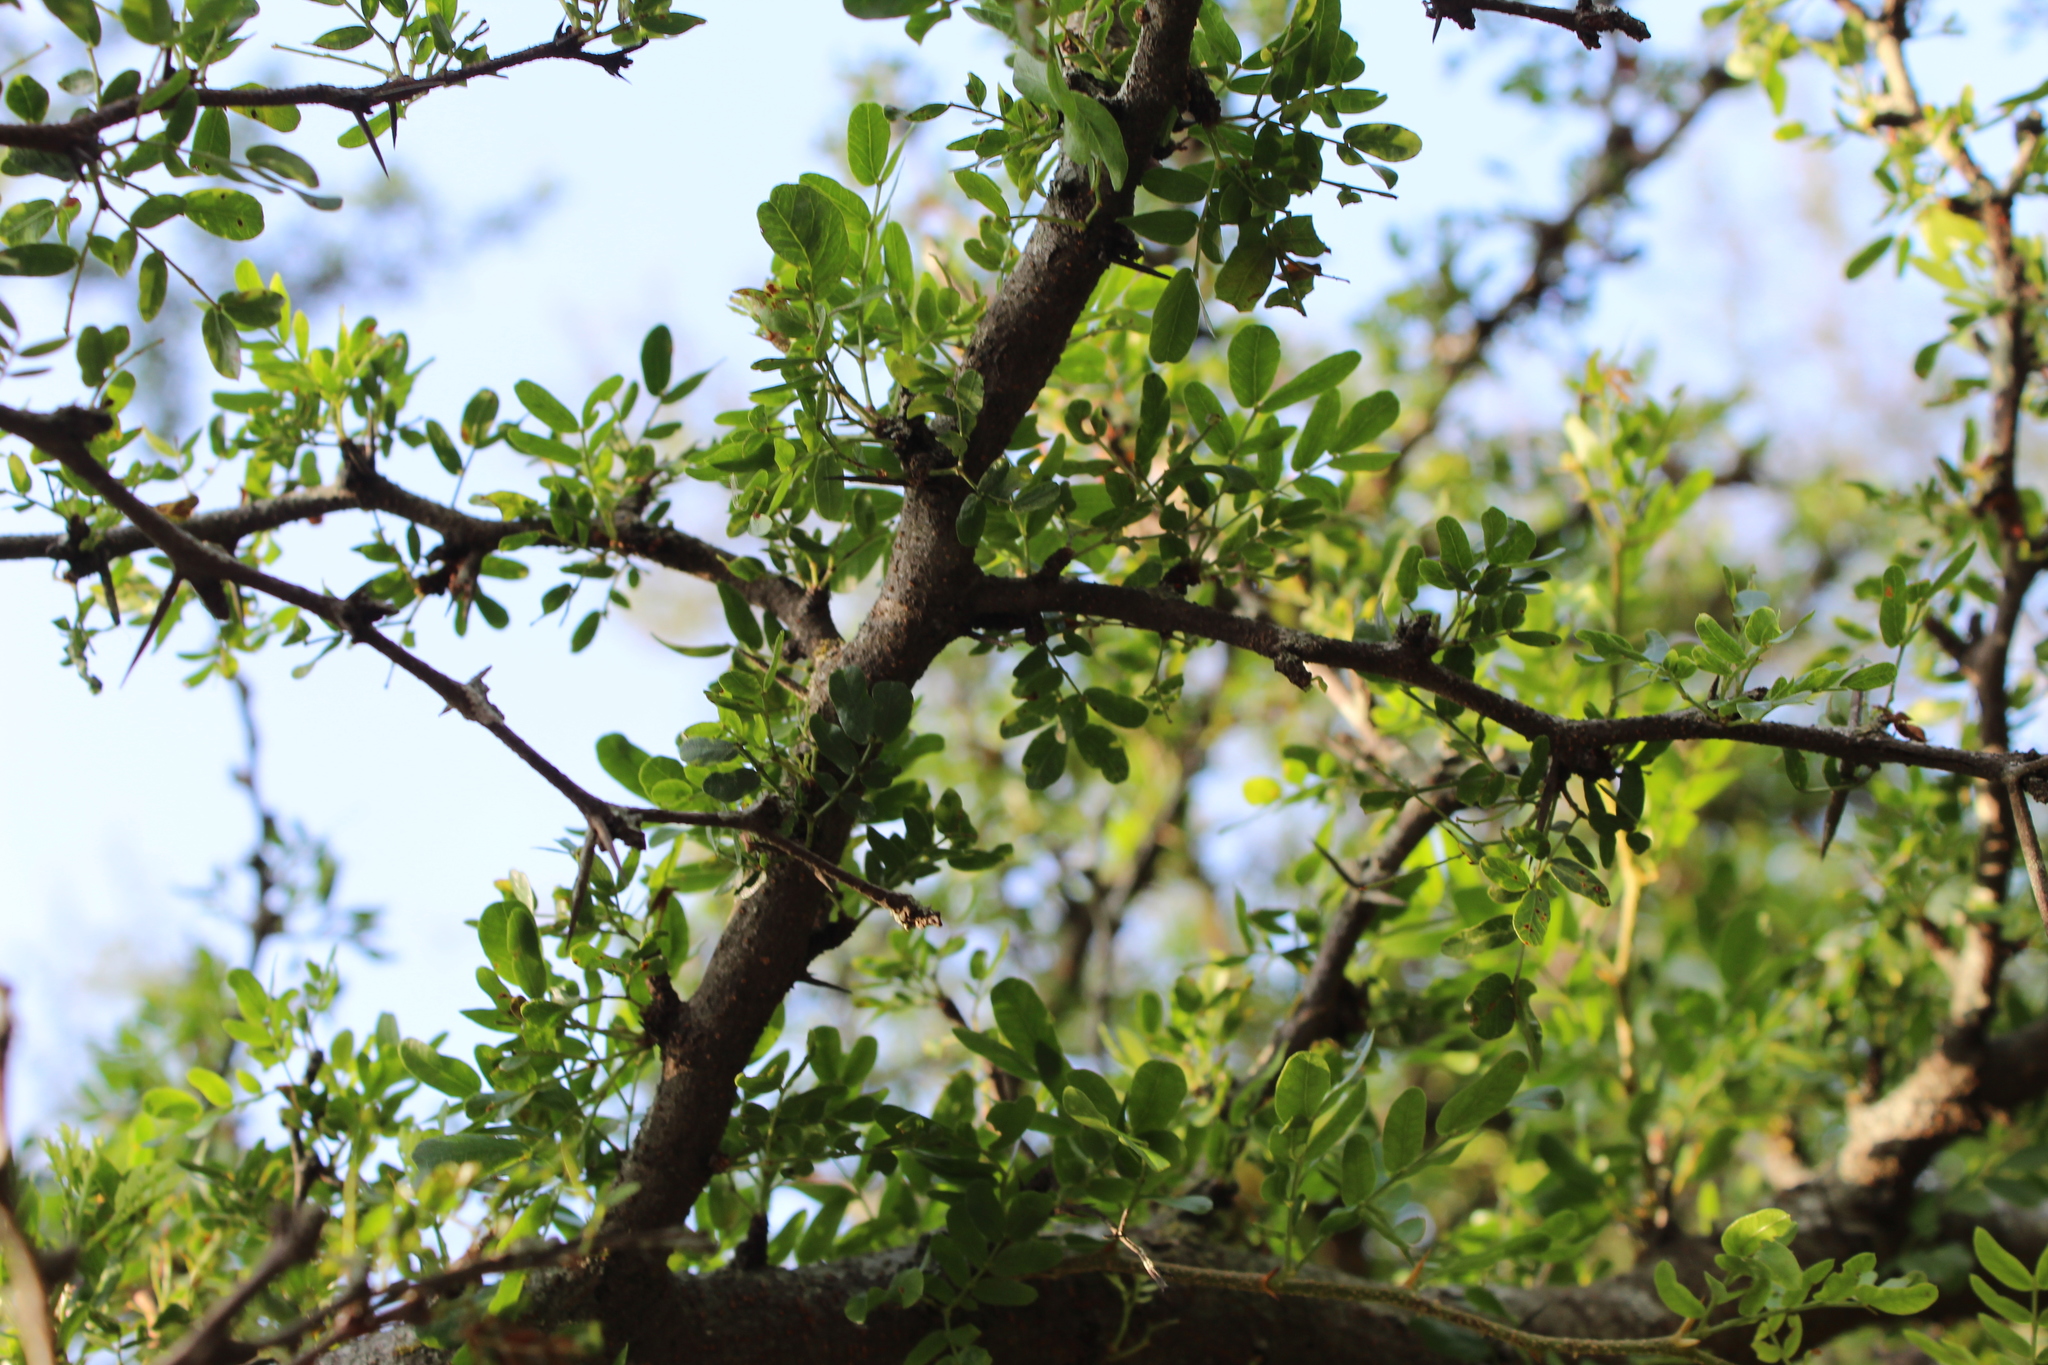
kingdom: Plantae
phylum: Tracheophyta
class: Magnoliopsida
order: Fabales
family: Fabaceae
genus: Vachellia
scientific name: Vachellia rigidula
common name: Blackbrush
